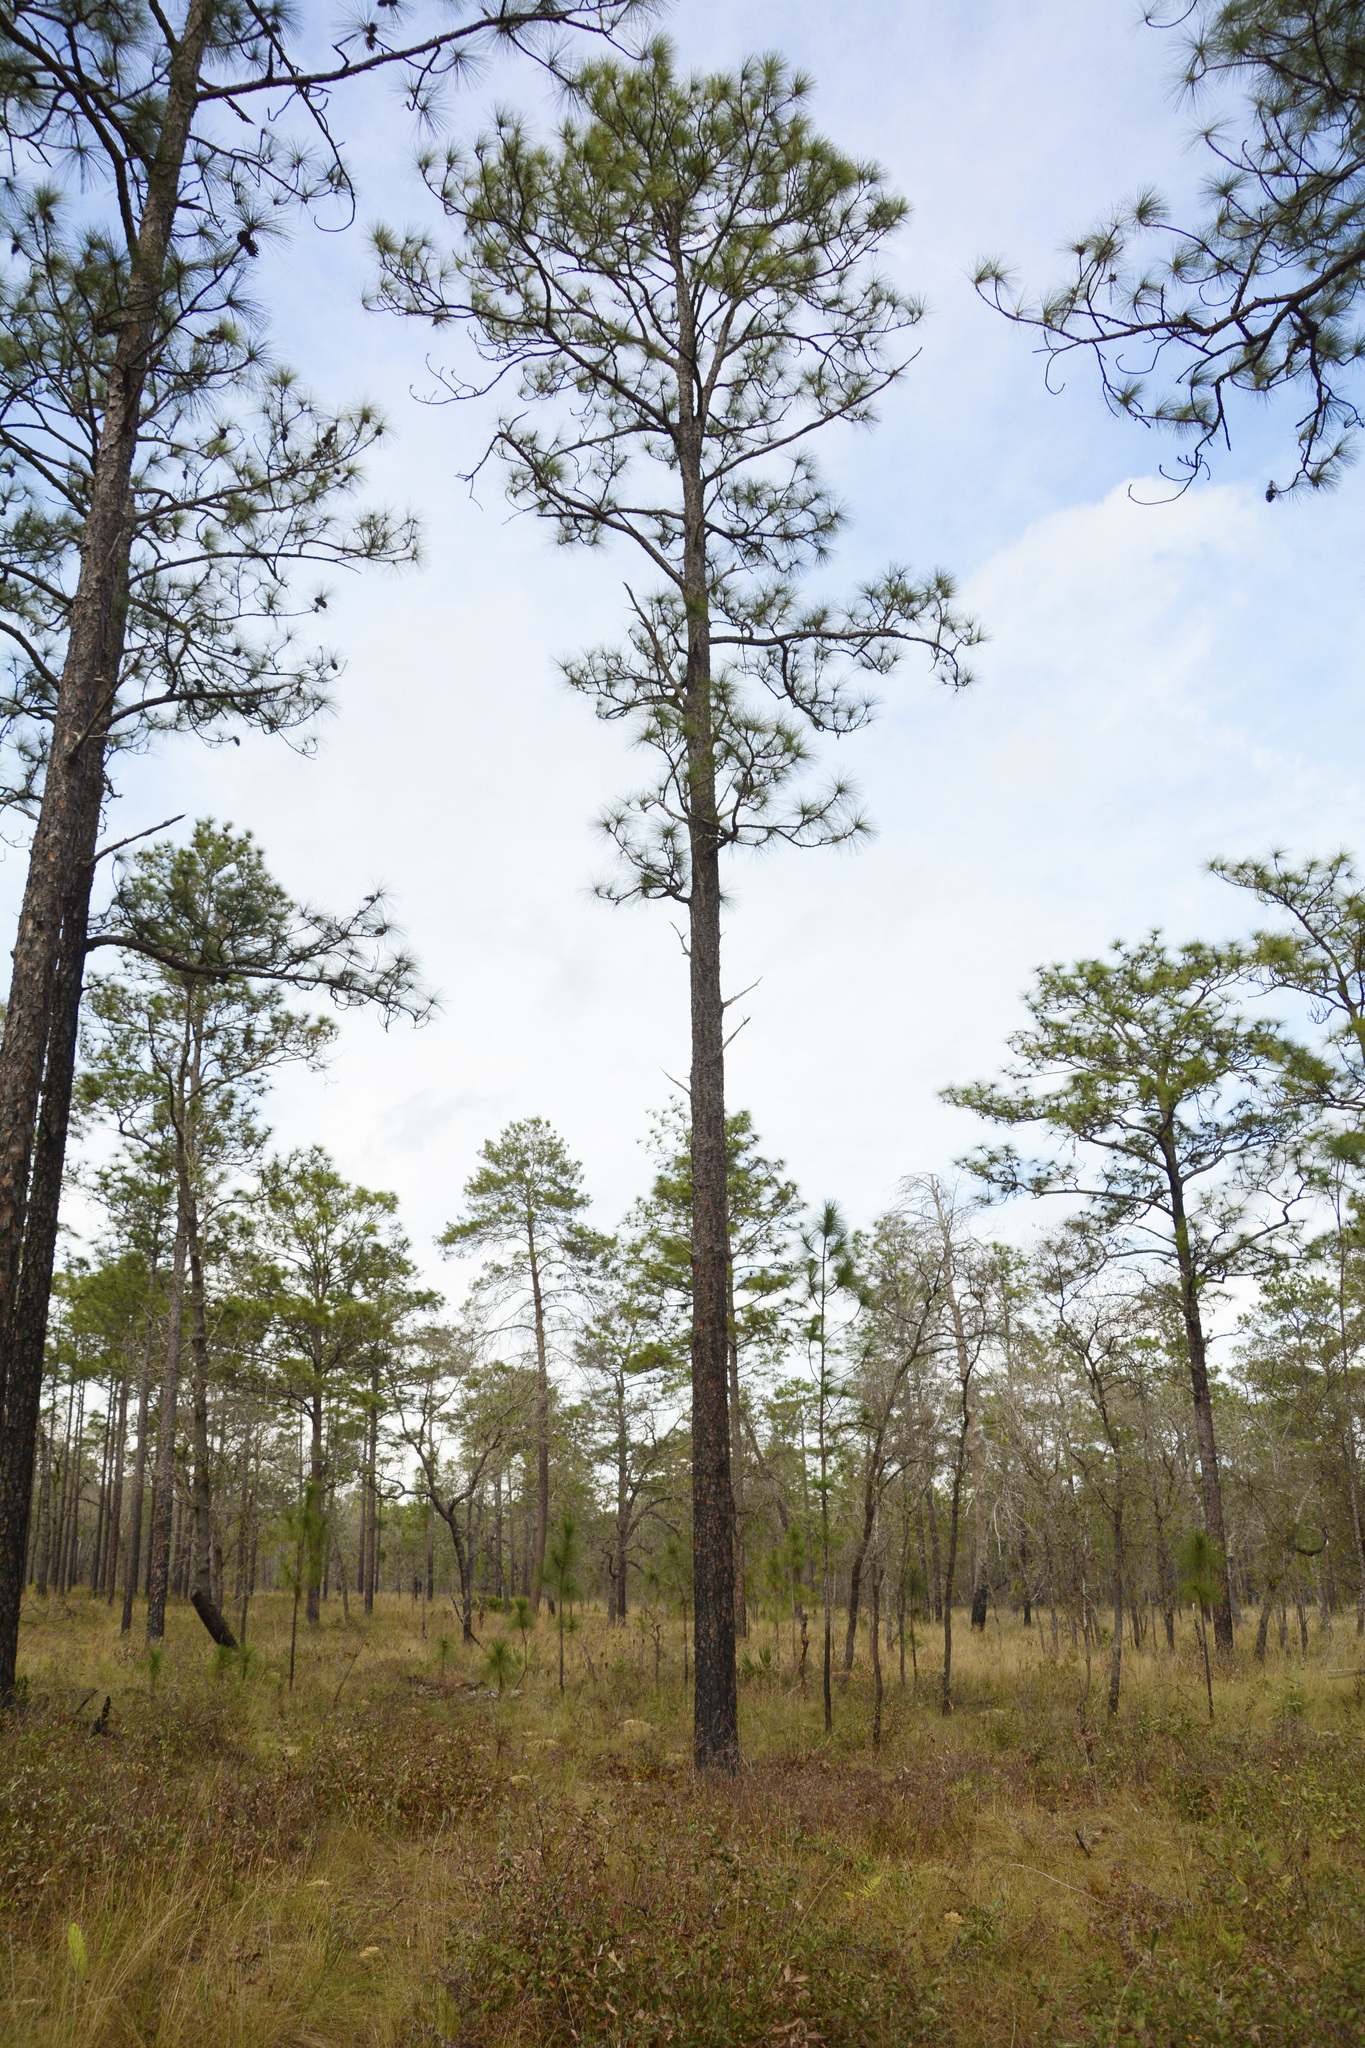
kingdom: Plantae
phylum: Tracheophyta
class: Pinopsida
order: Pinales
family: Pinaceae
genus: Pinus
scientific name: Pinus palustris
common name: Longleaf pine
